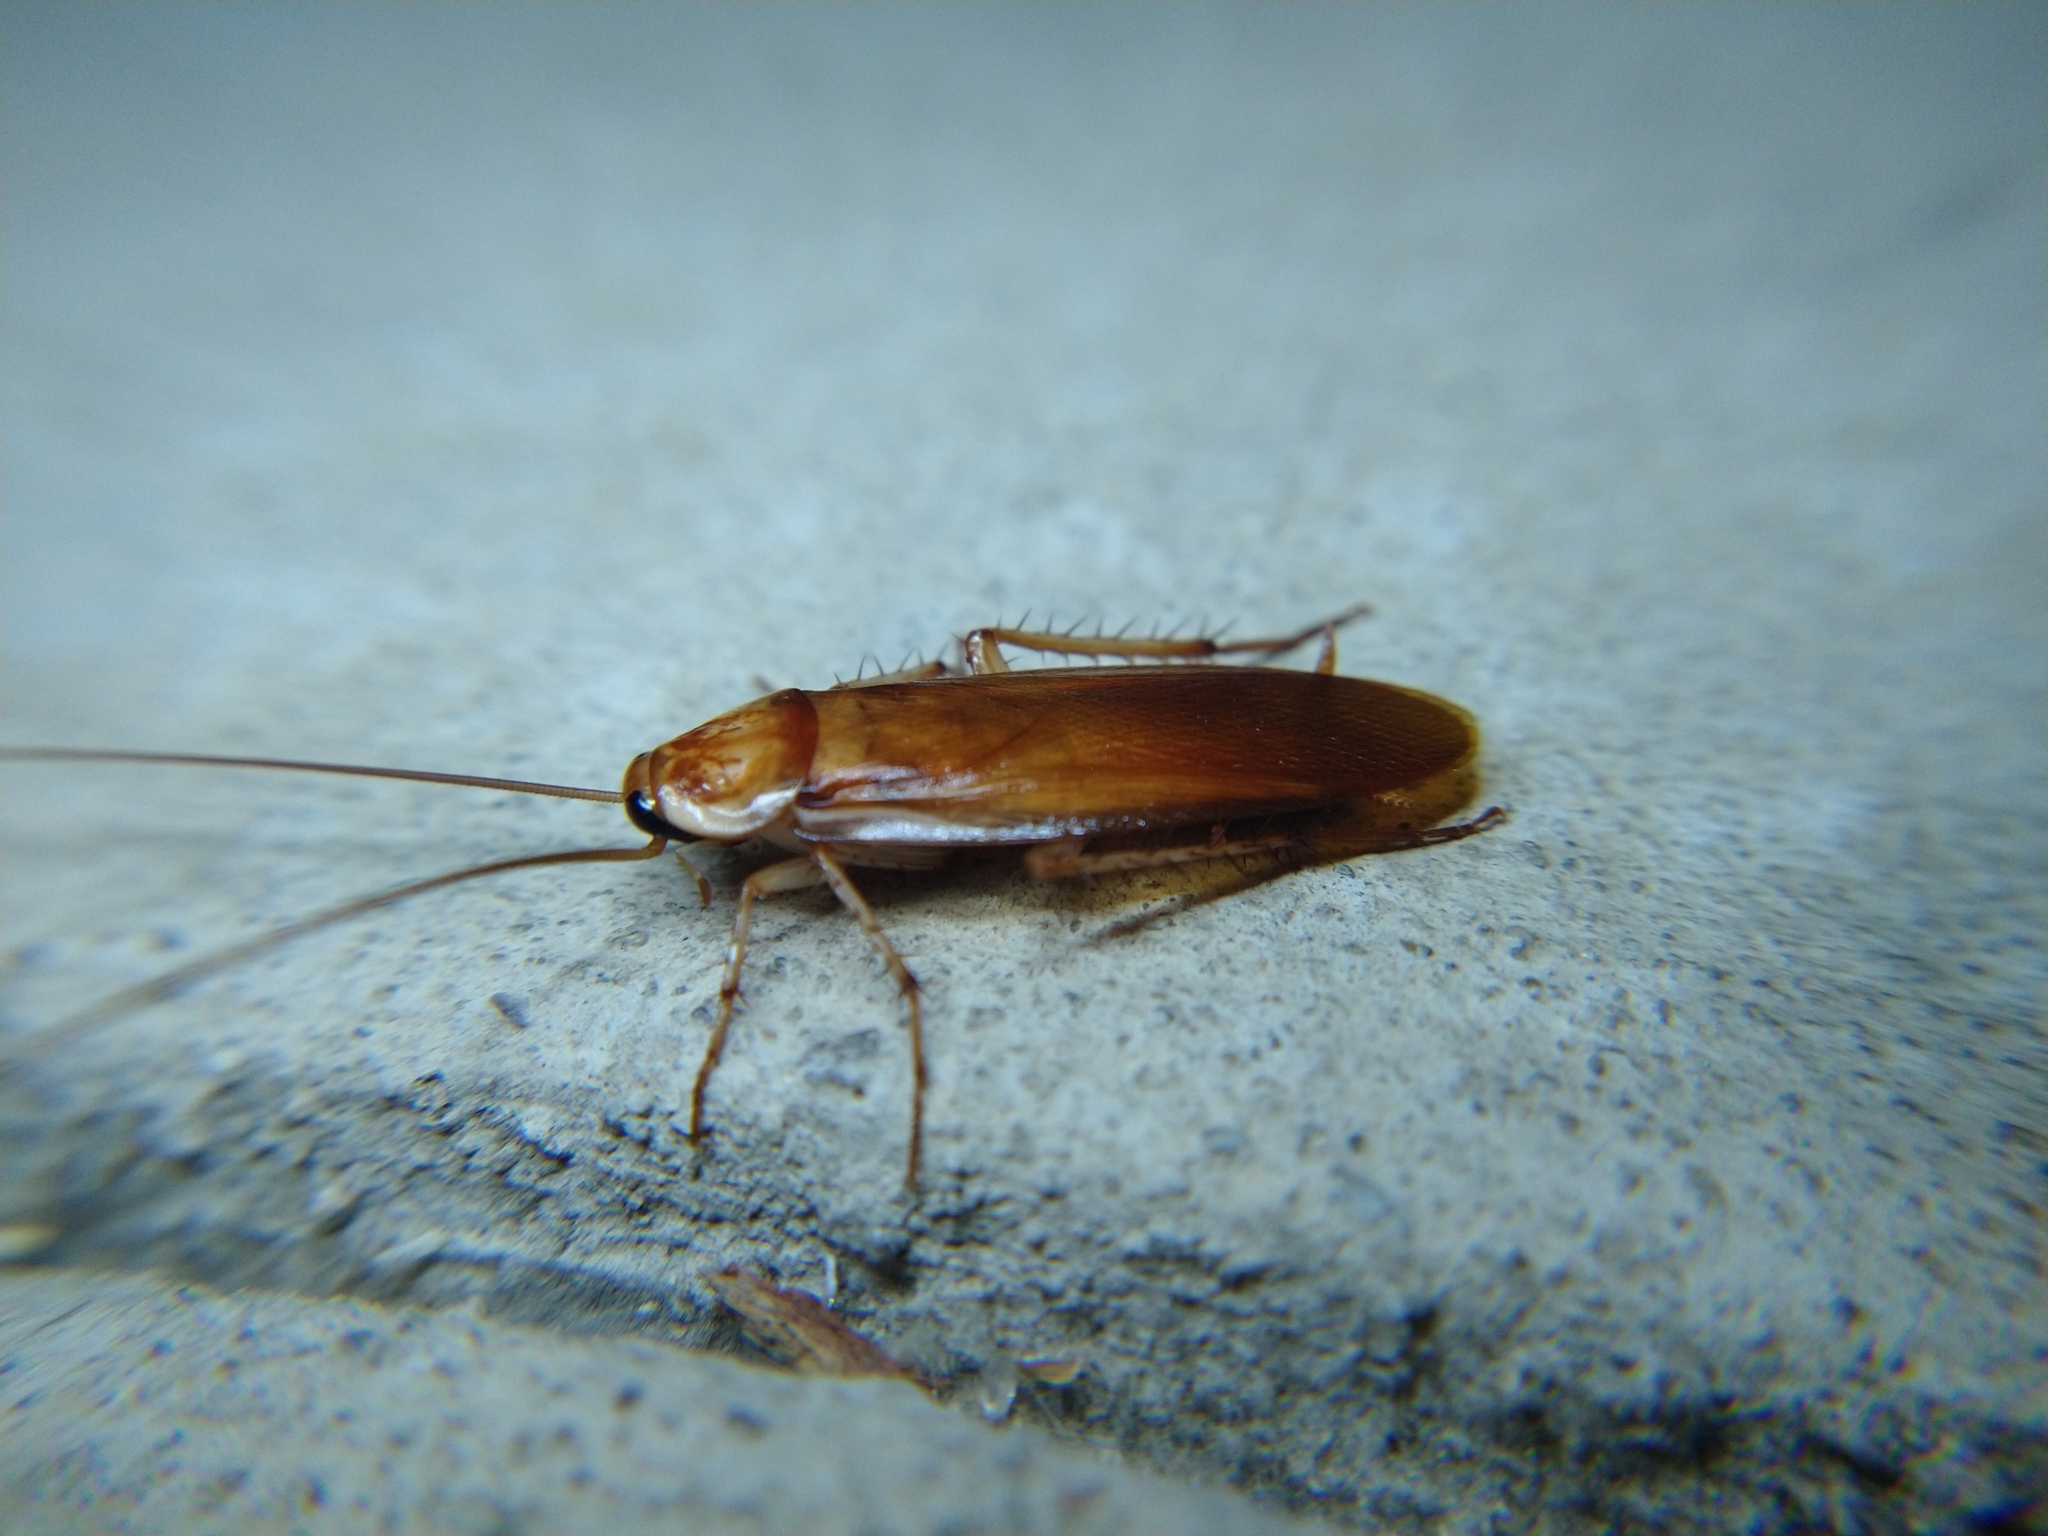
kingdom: Animalia
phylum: Arthropoda
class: Insecta
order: Blattodea
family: Blattidae
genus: Periplaneta
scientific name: Periplaneta lateralis
